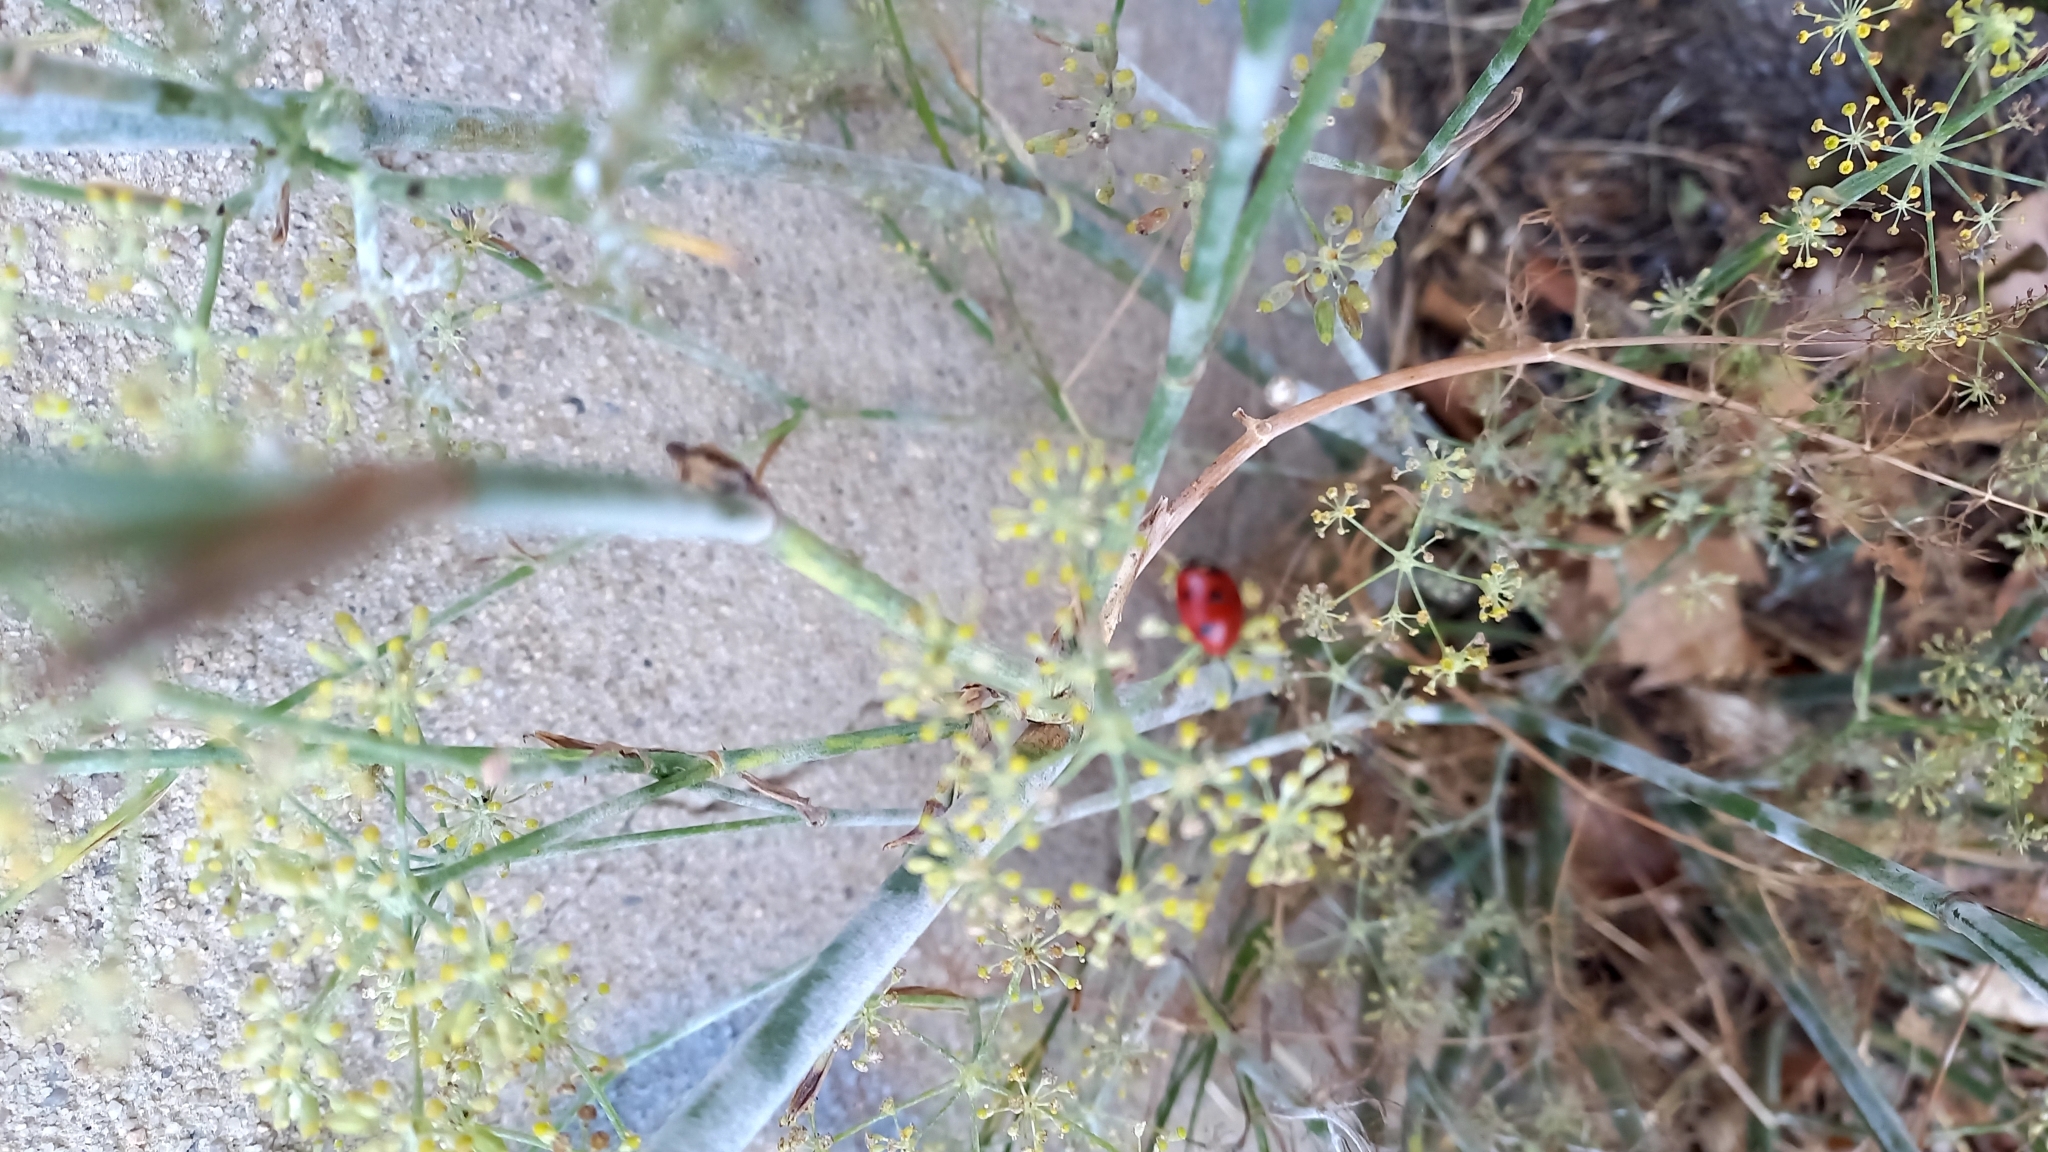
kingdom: Animalia
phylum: Arthropoda
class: Insecta
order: Coleoptera
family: Coccinellidae
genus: Coccinella
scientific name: Coccinella septempunctata
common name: Sevenspotted lady beetle
